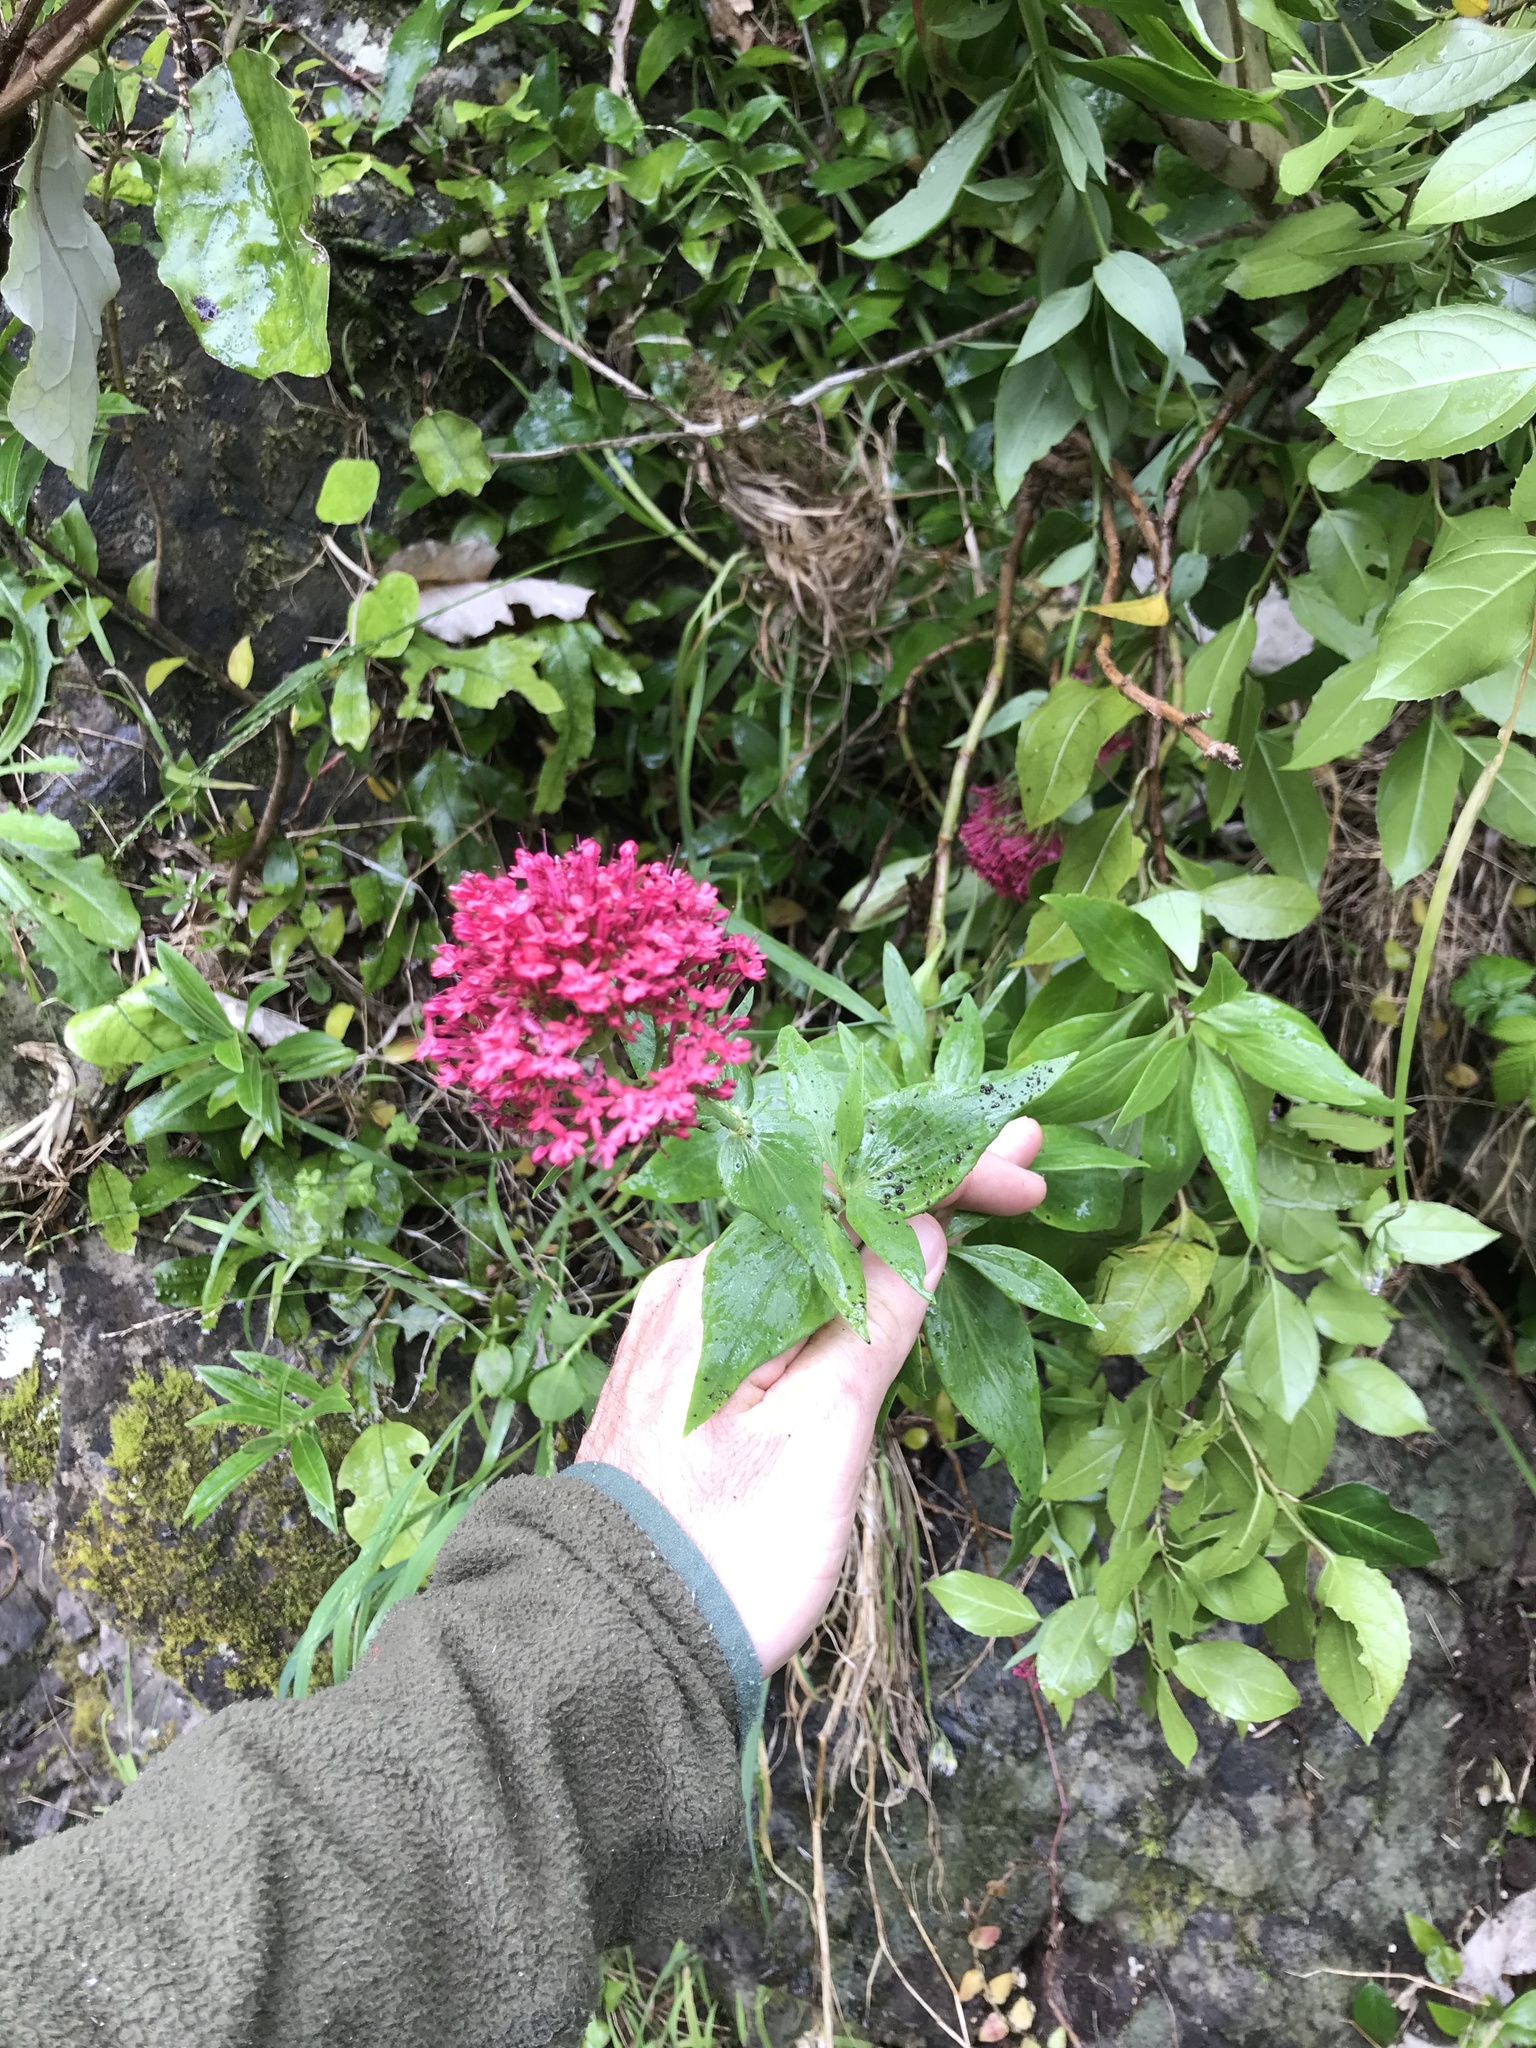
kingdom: Plantae
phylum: Tracheophyta
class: Magnoliopsida
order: Dipsacales
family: Caprifoliaceae
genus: Centranthus
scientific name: Centranthus ruber
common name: Red valerian
